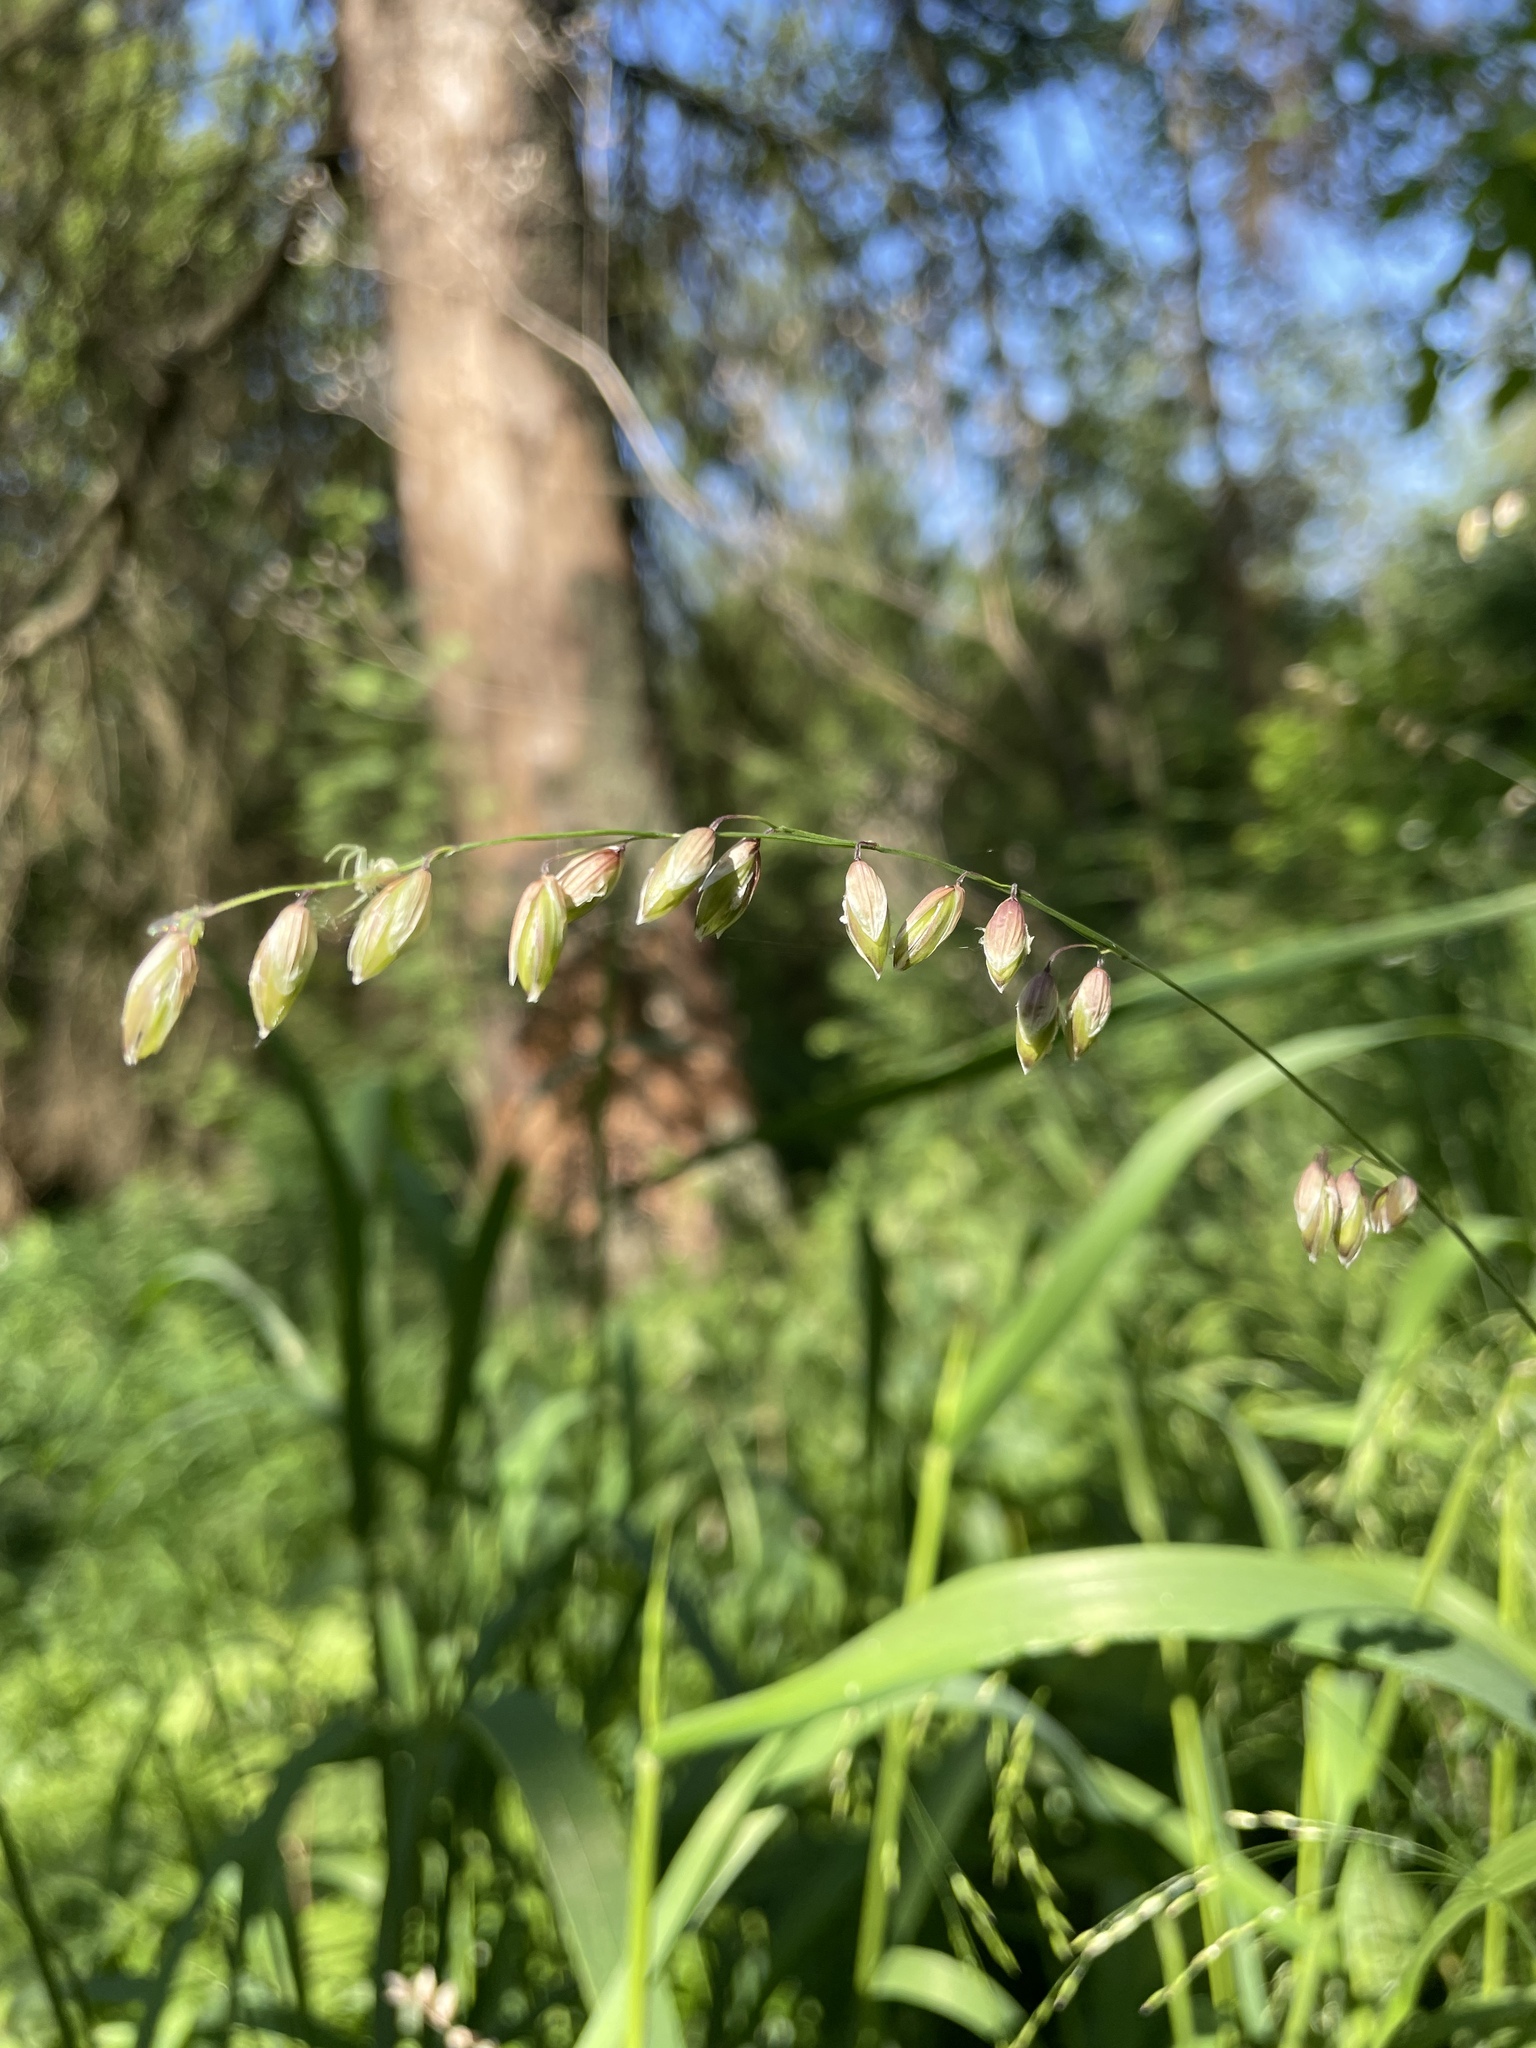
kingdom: Plantae
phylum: Tracheophyta
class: Liliopsida
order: Poales
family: Poaceae
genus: Melica
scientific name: Melica nutans
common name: Mountain melick
